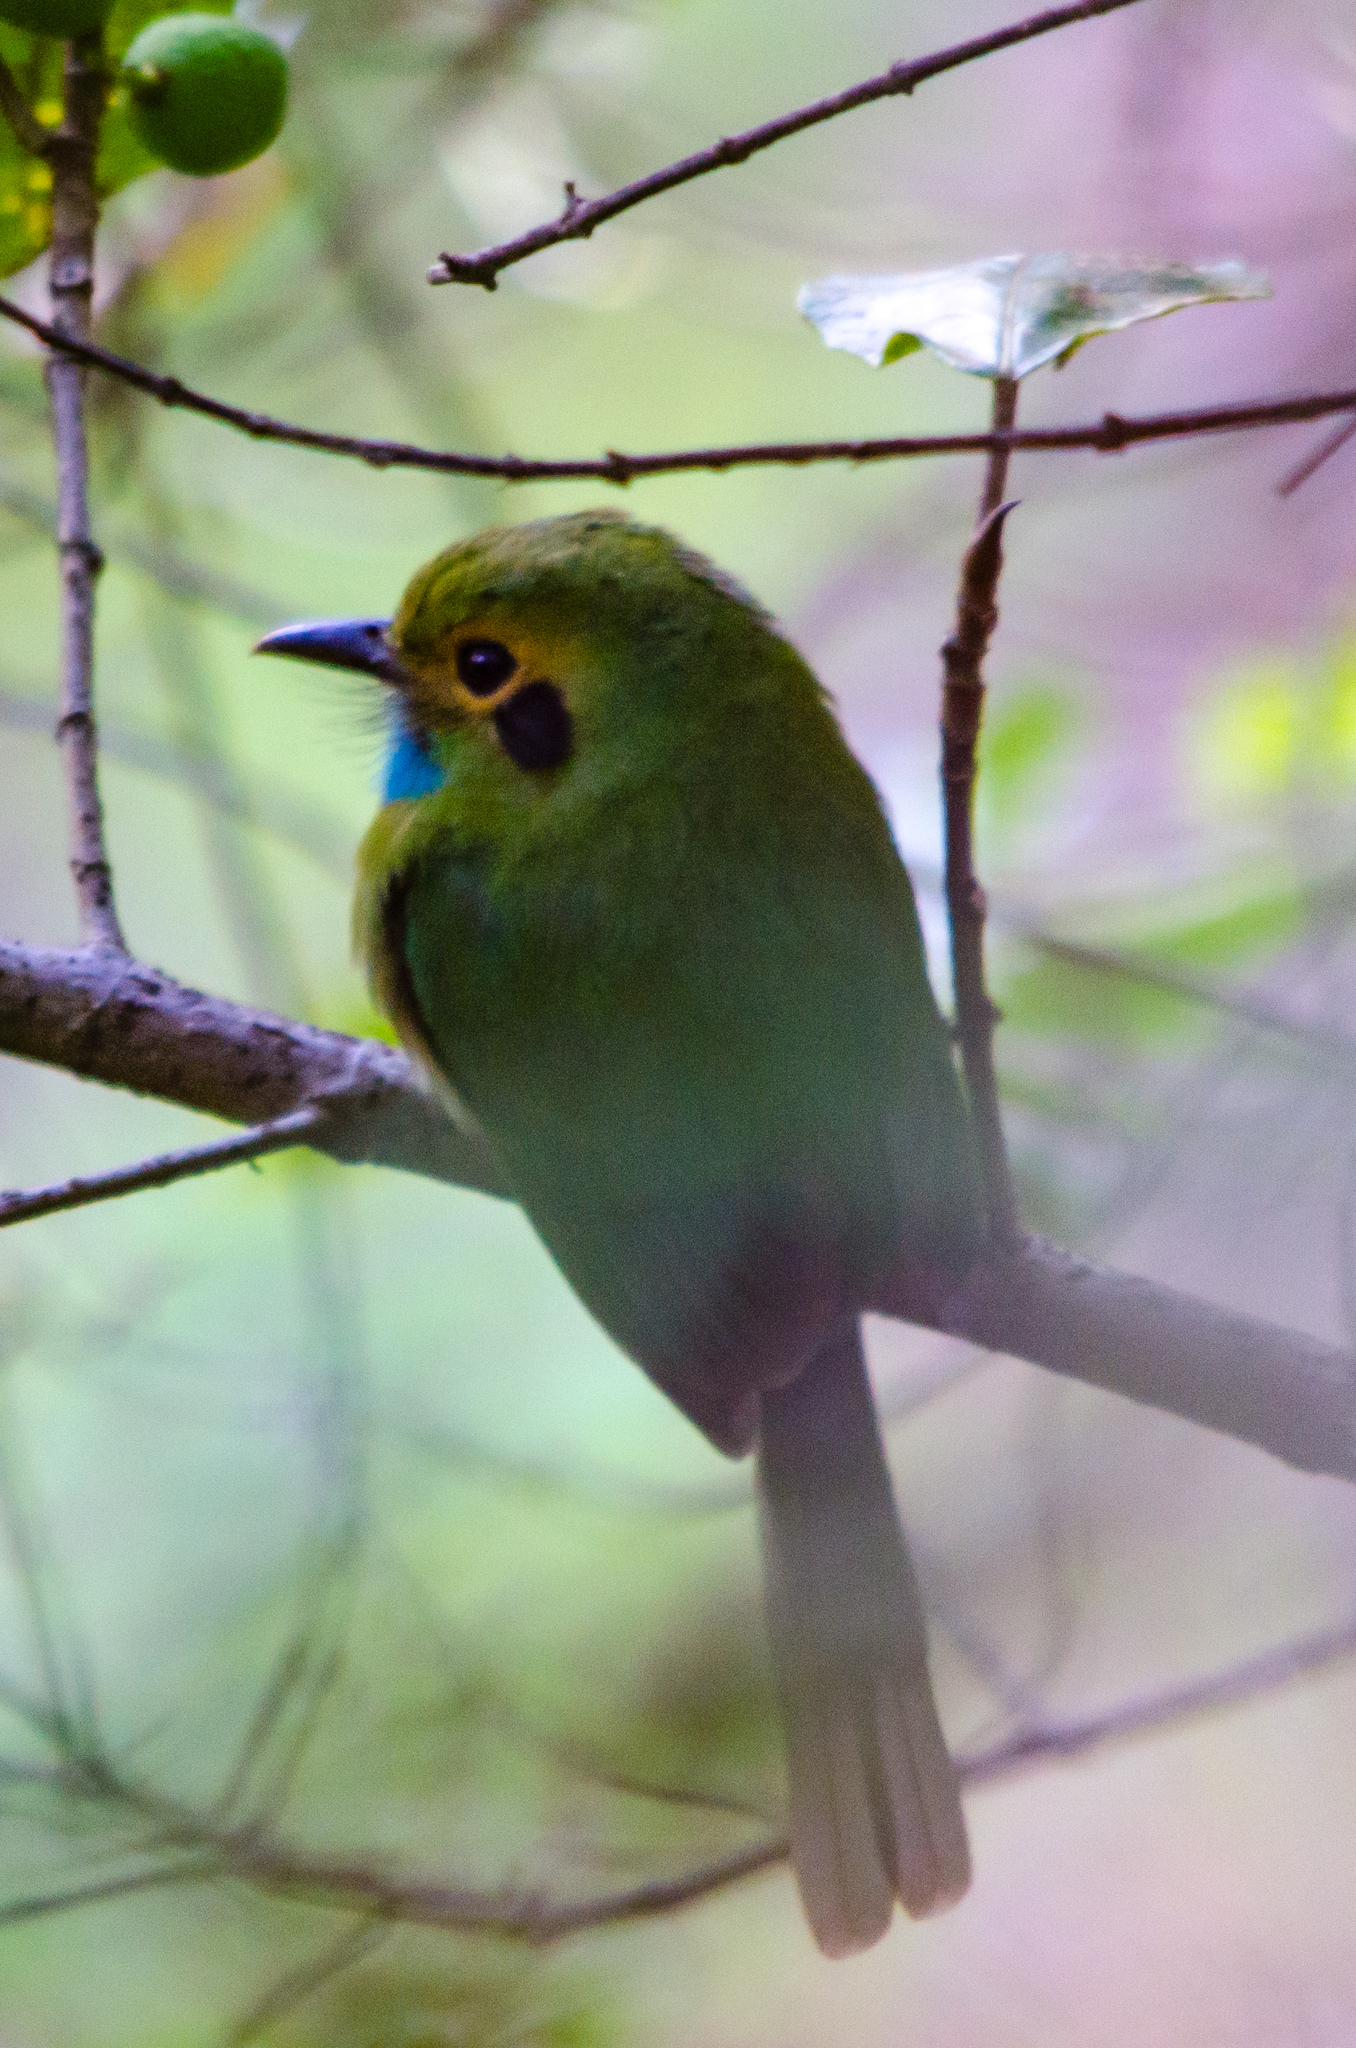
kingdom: Animalia
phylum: Chordata
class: Aves
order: Coraciiformes
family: Momotidae
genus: Aspatha
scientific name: Aspatha gularis
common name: Blue-throated motmot
